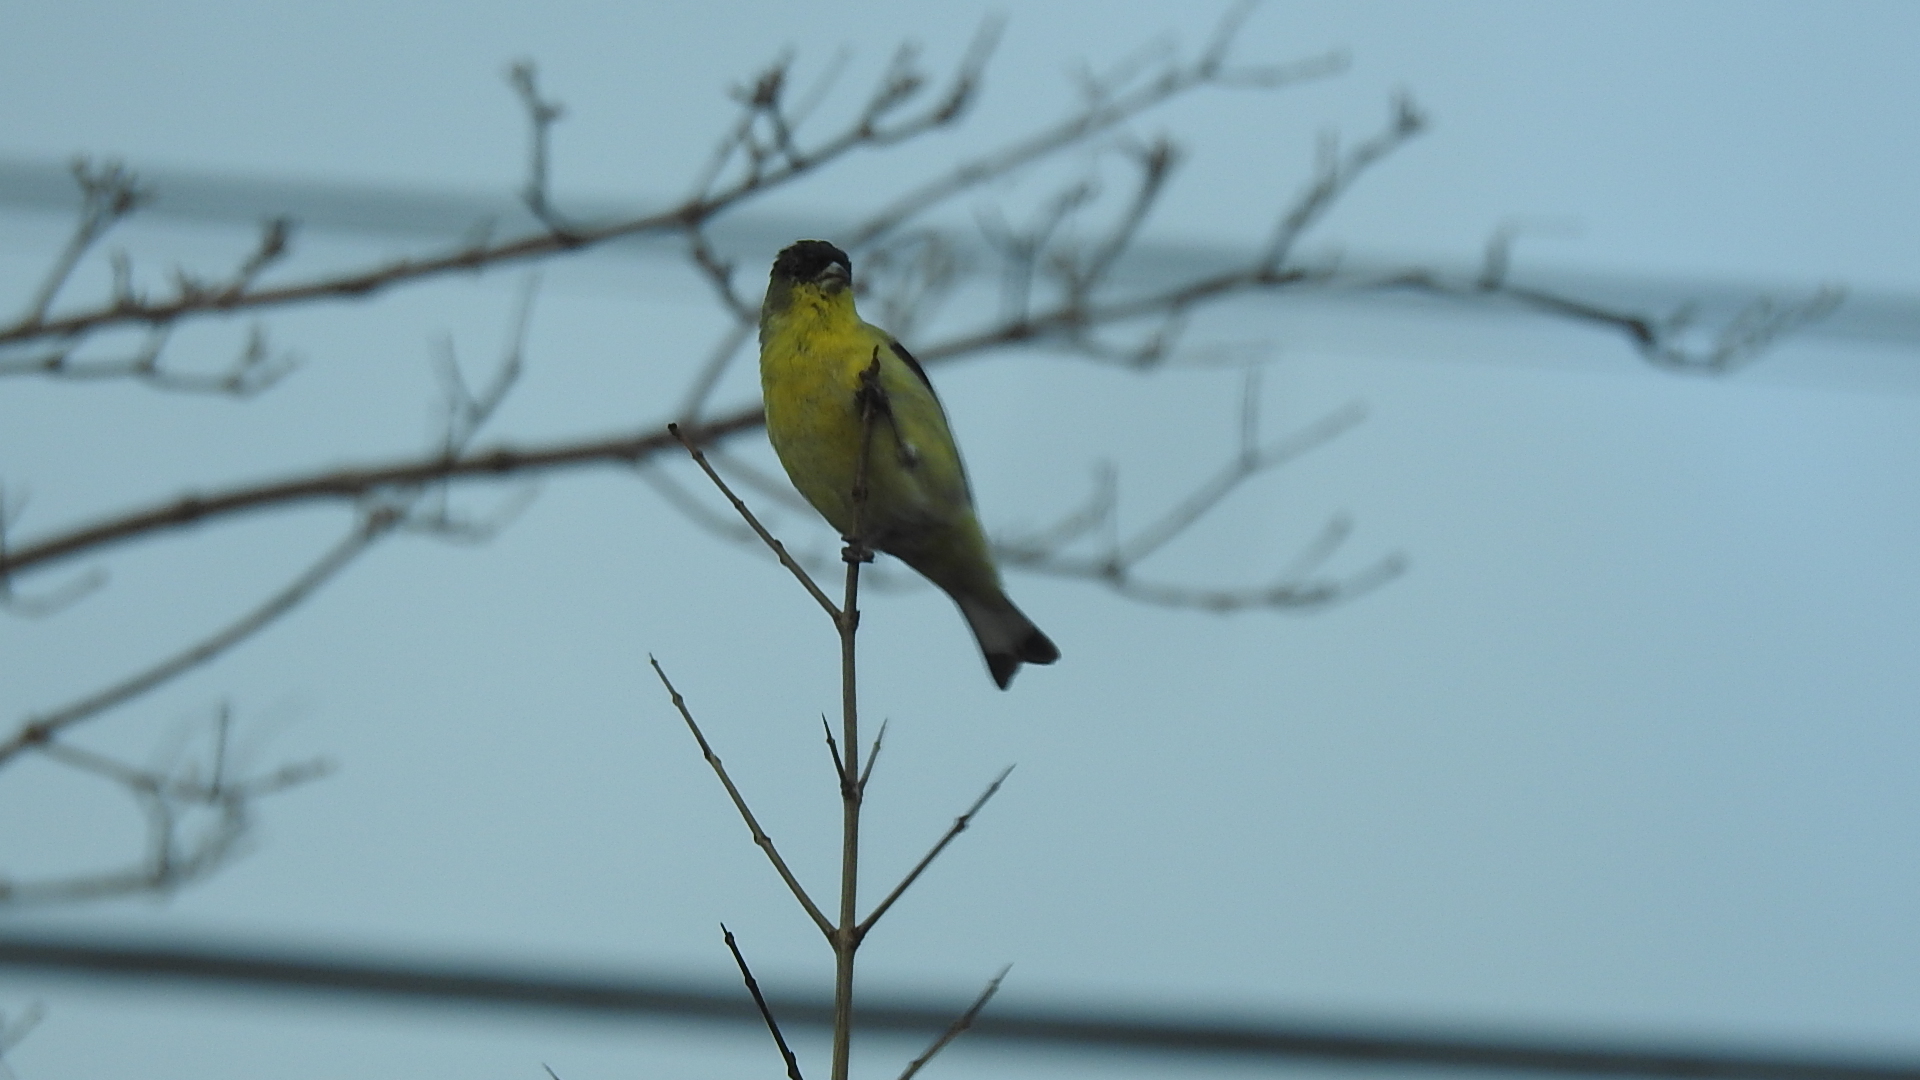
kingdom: Animalia
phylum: Chordata
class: Aves
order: Passeriformes
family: Fringillidae
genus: Spinus
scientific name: Spinus psaltria
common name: Lesser goldfinch
